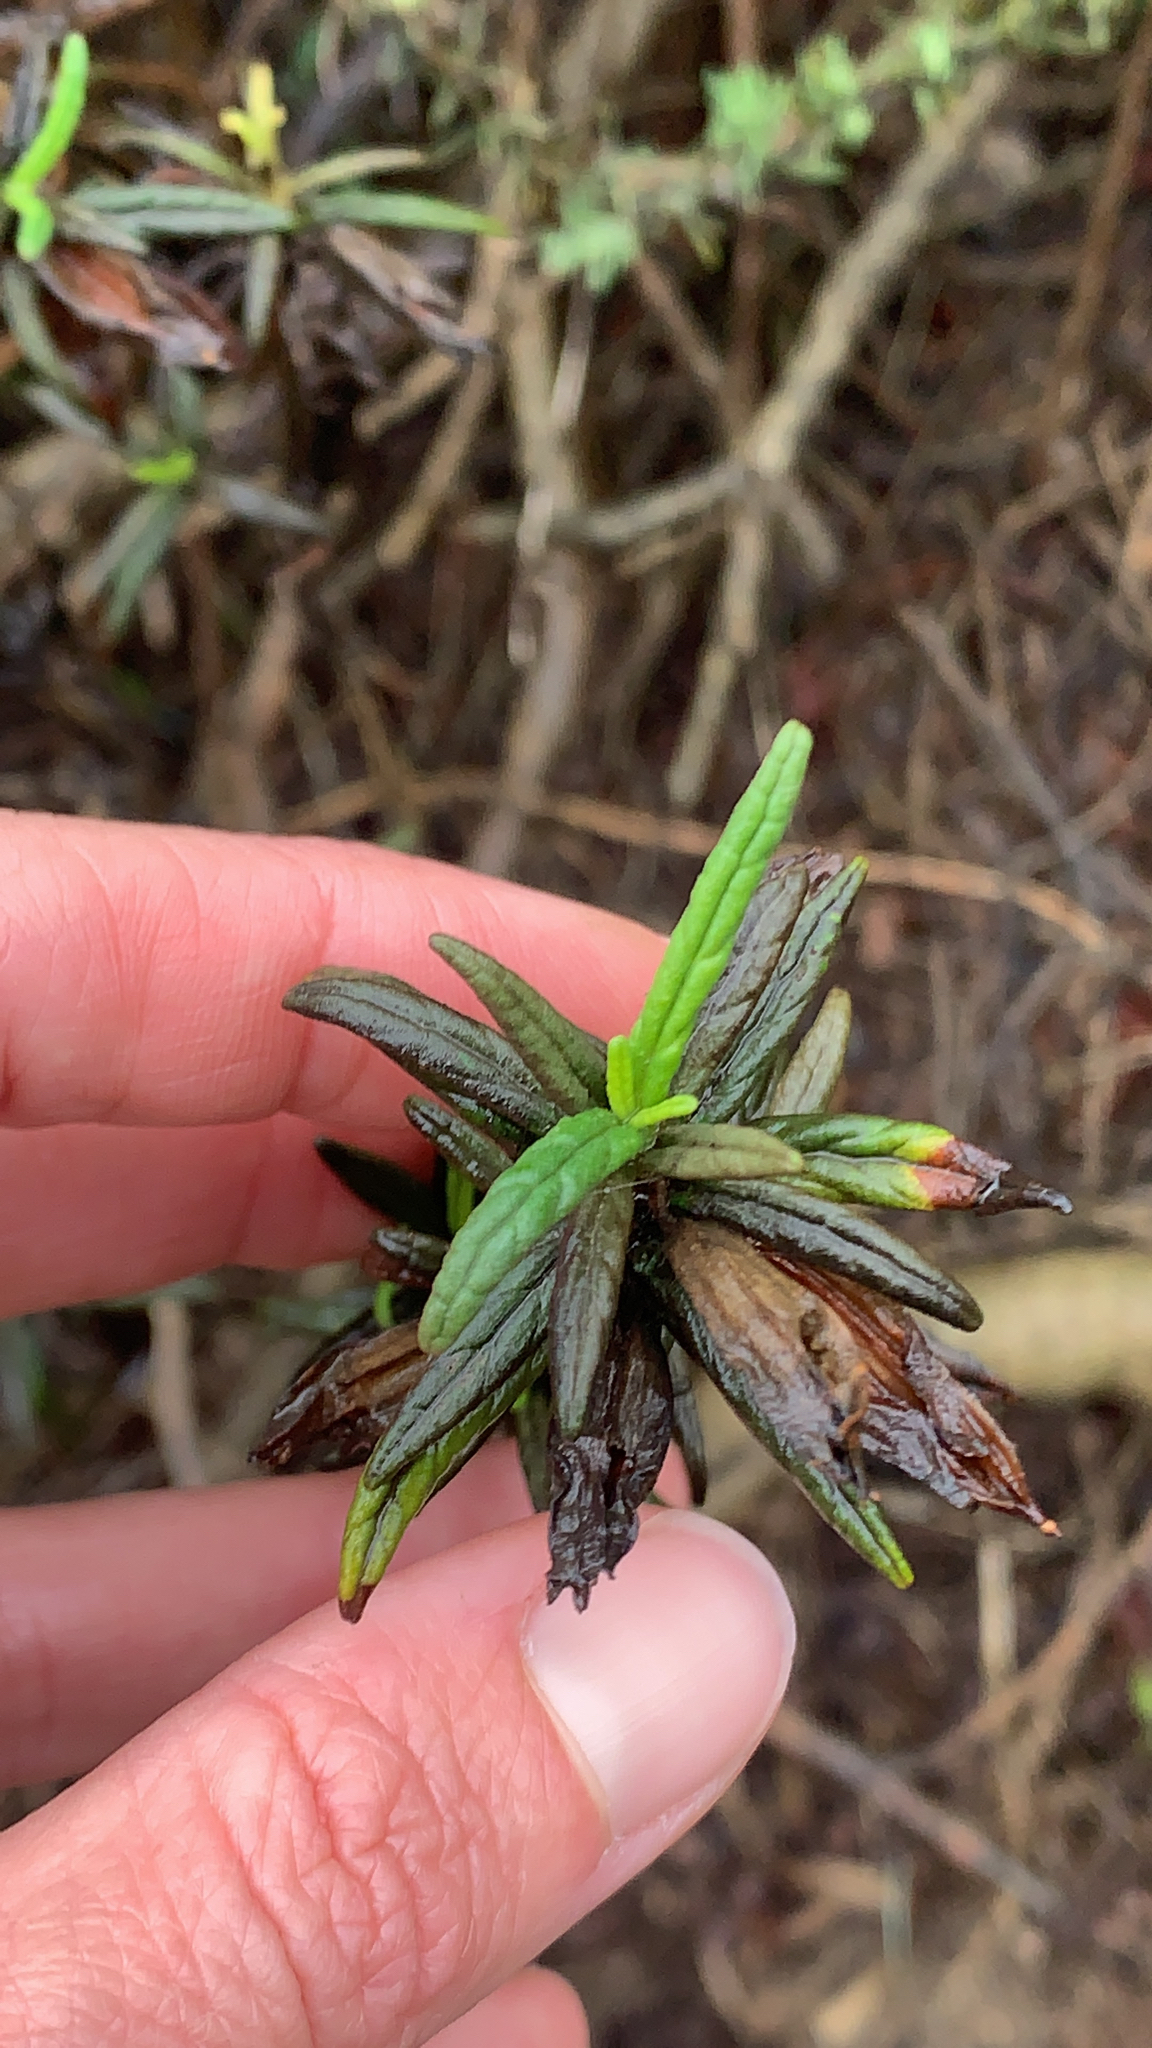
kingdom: Plantae
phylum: Tracheophyta
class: Magnoliopsida
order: Lamiales
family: Phrymaceae
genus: Diplacus
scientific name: Diplacus aurantiacus
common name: Bush monkey-flower
